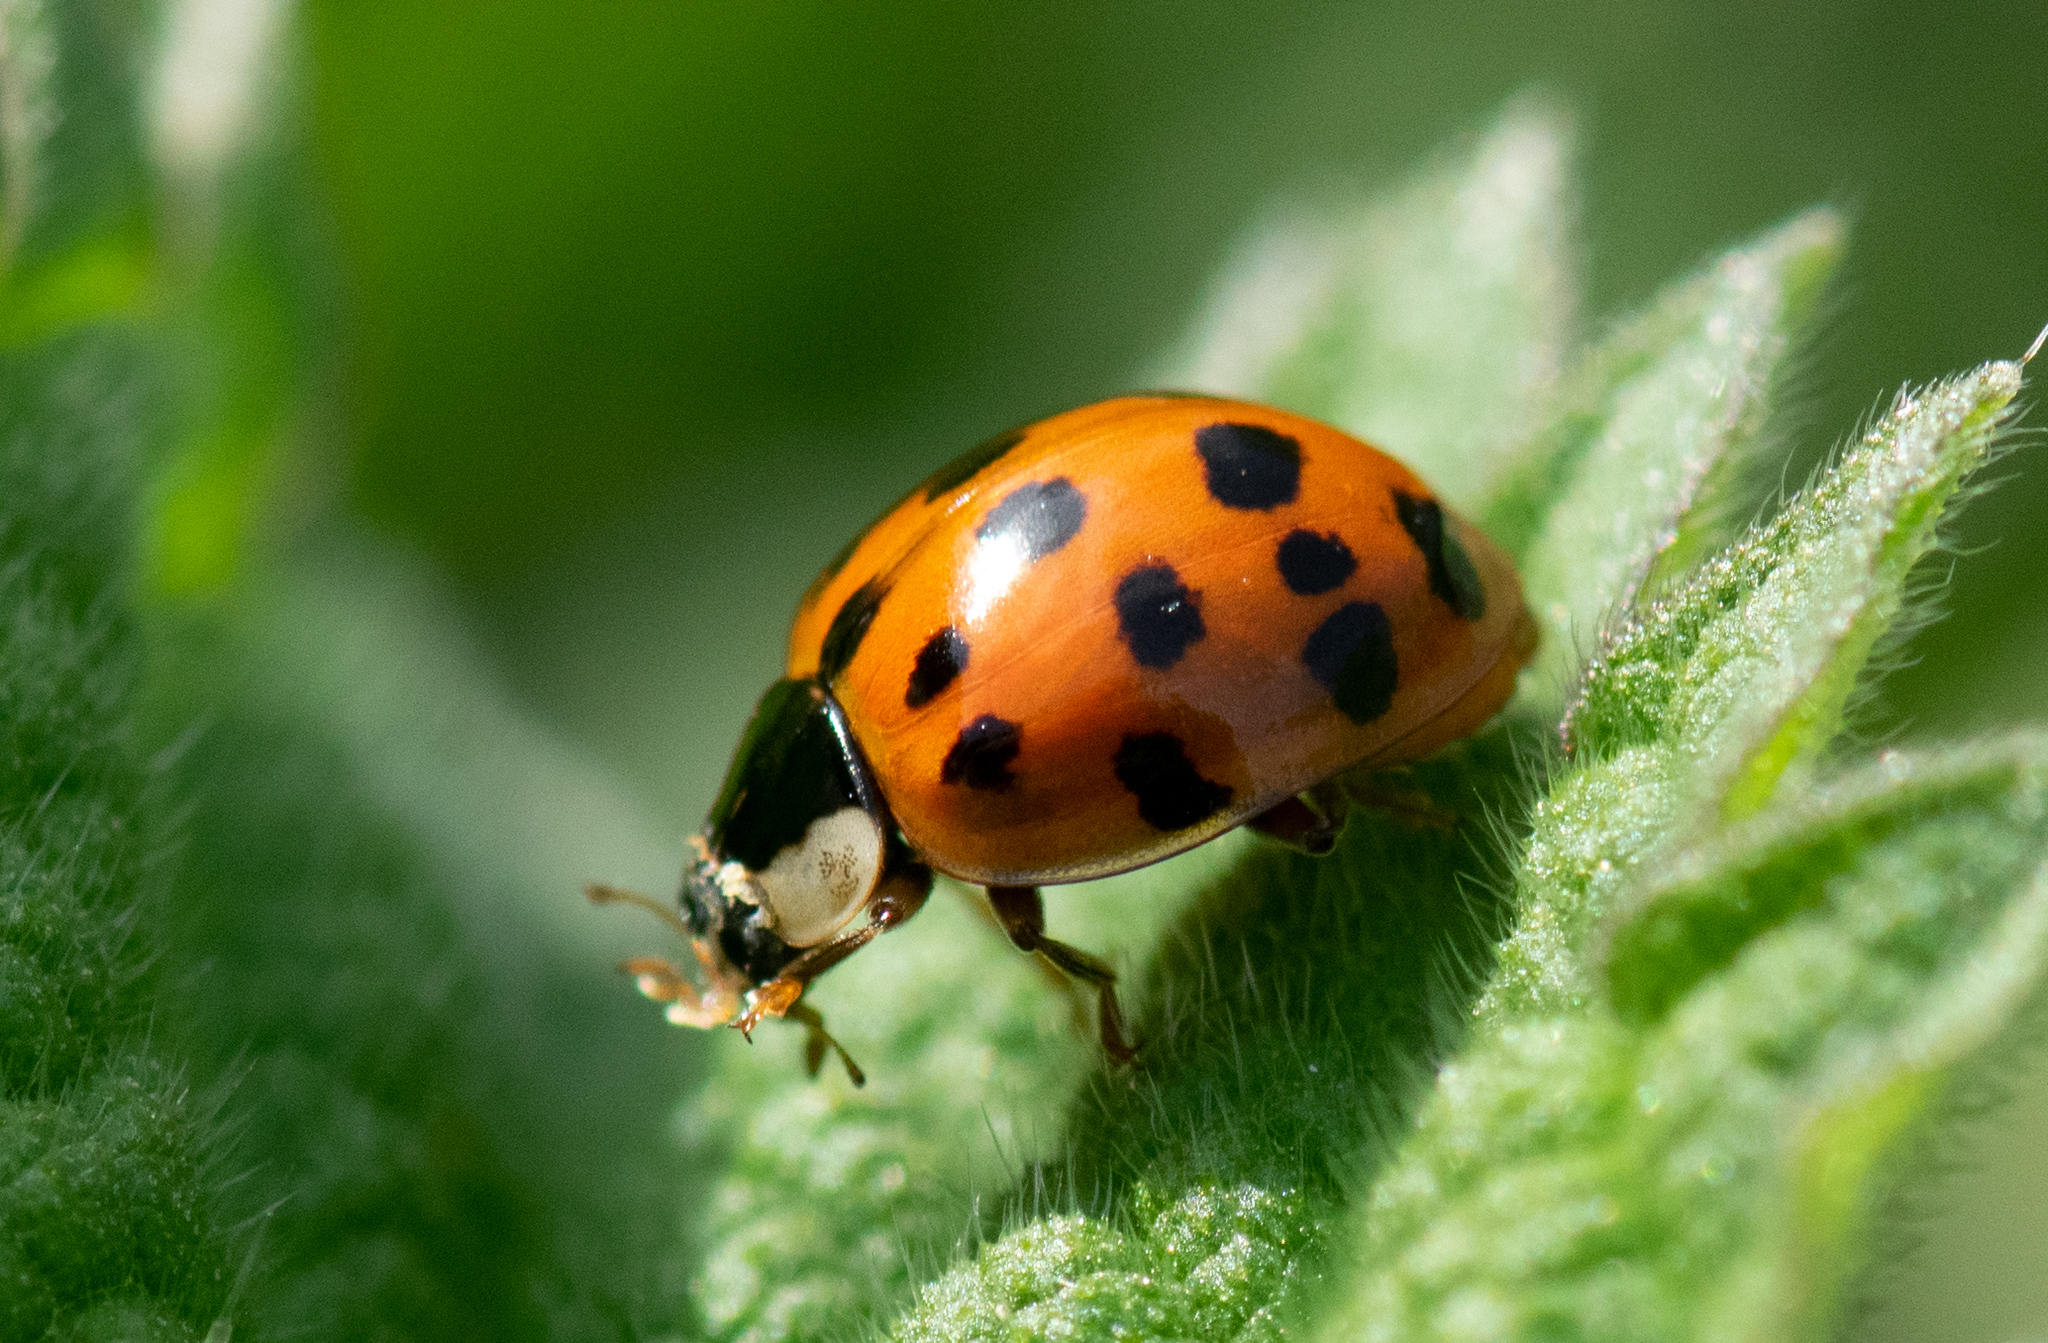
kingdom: Animalia
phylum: Arthropoda
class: Insecta
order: Coleoptera
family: Coccinellidae
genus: Harmonia
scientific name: Harmonia axyridis
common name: Harlequin ladybird
